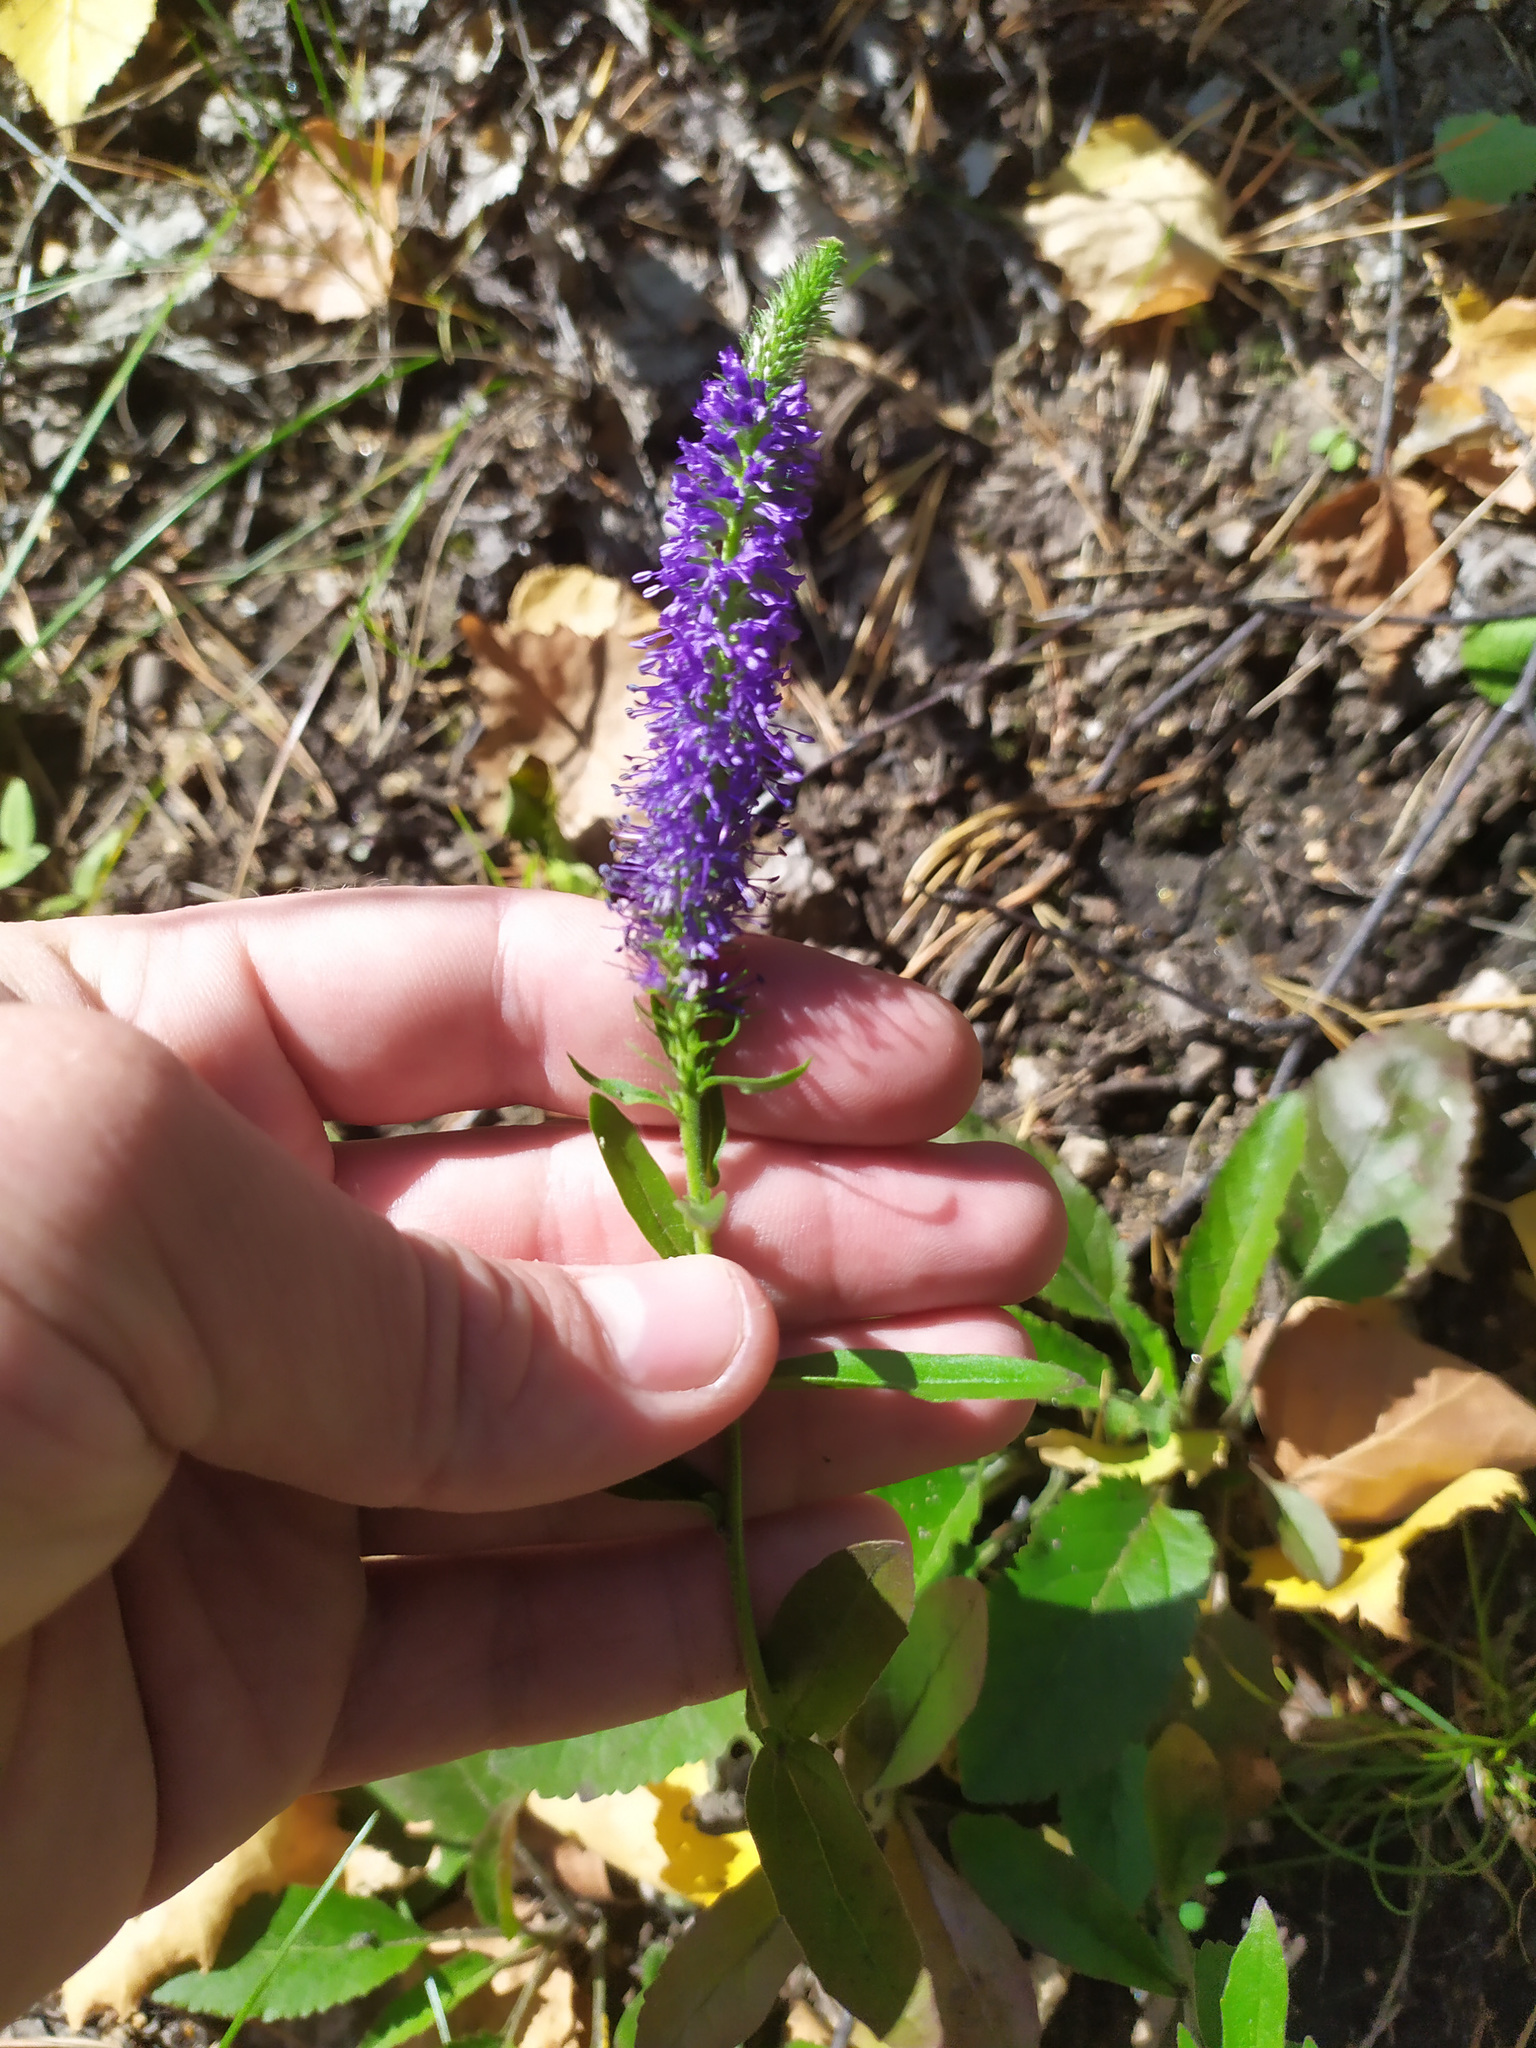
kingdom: Plantae
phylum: Tracheophyta
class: Magnoliopsida
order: Lamiales
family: Plantaginaceae
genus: Veronica
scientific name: Veronica spicata
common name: Spiked speedwell
